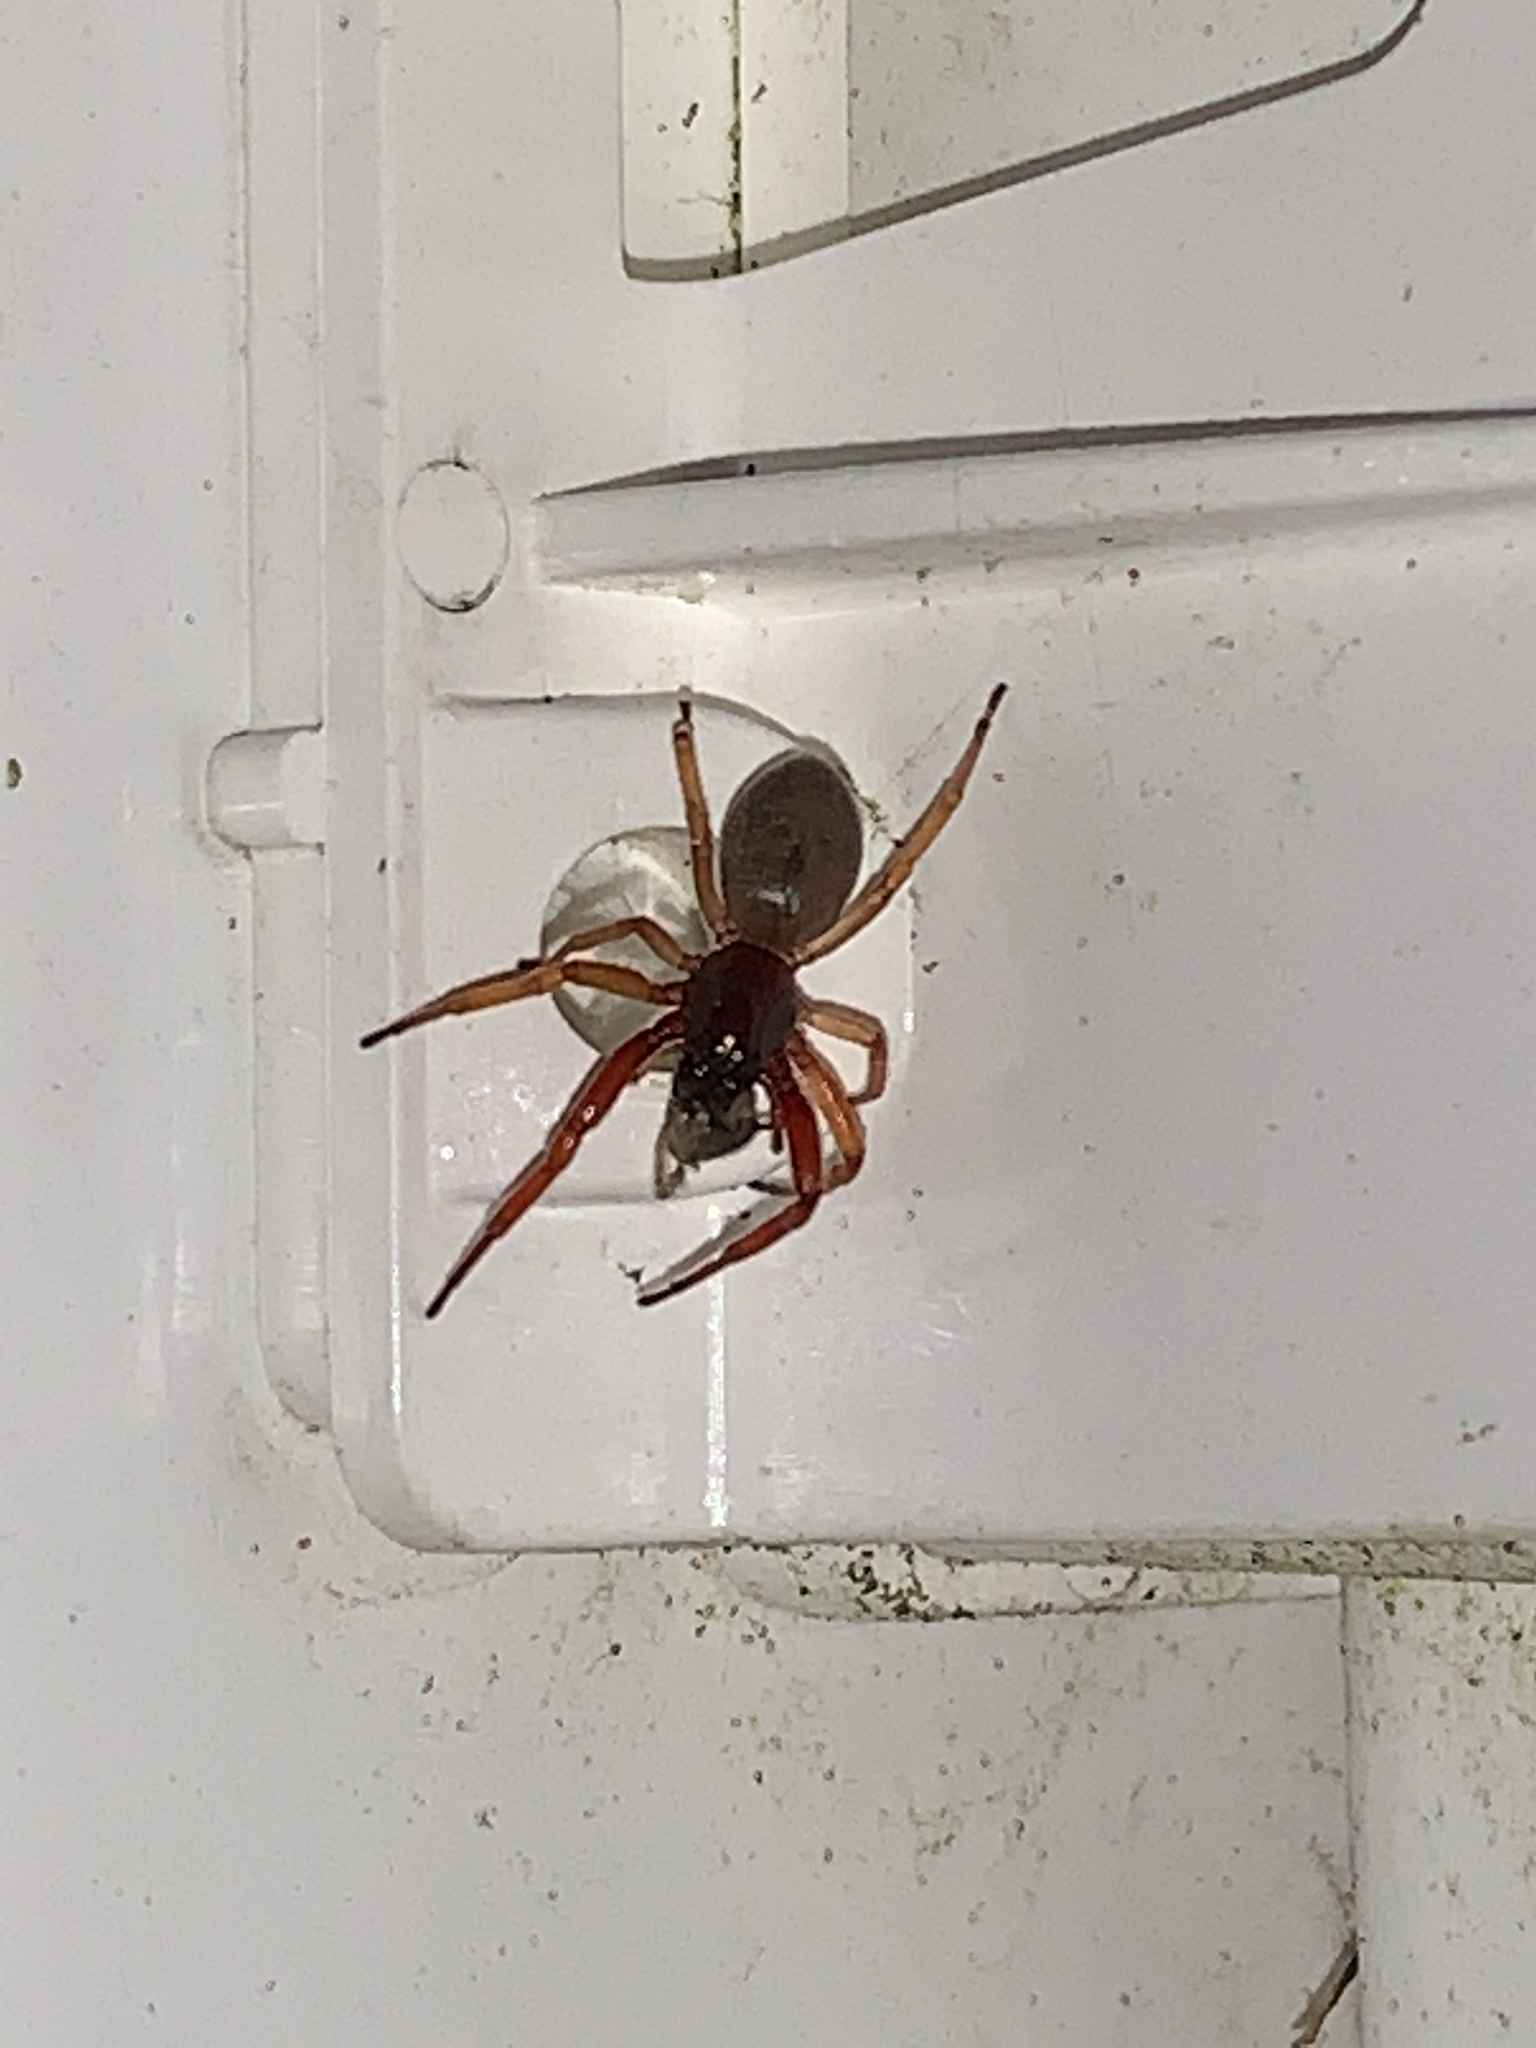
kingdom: Animalia
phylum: Arthropoda
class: Arachnida
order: Araneae
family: Trachelidae
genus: Trachelas
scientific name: Trachelas tranquillus
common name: Broad-faced sac spider
